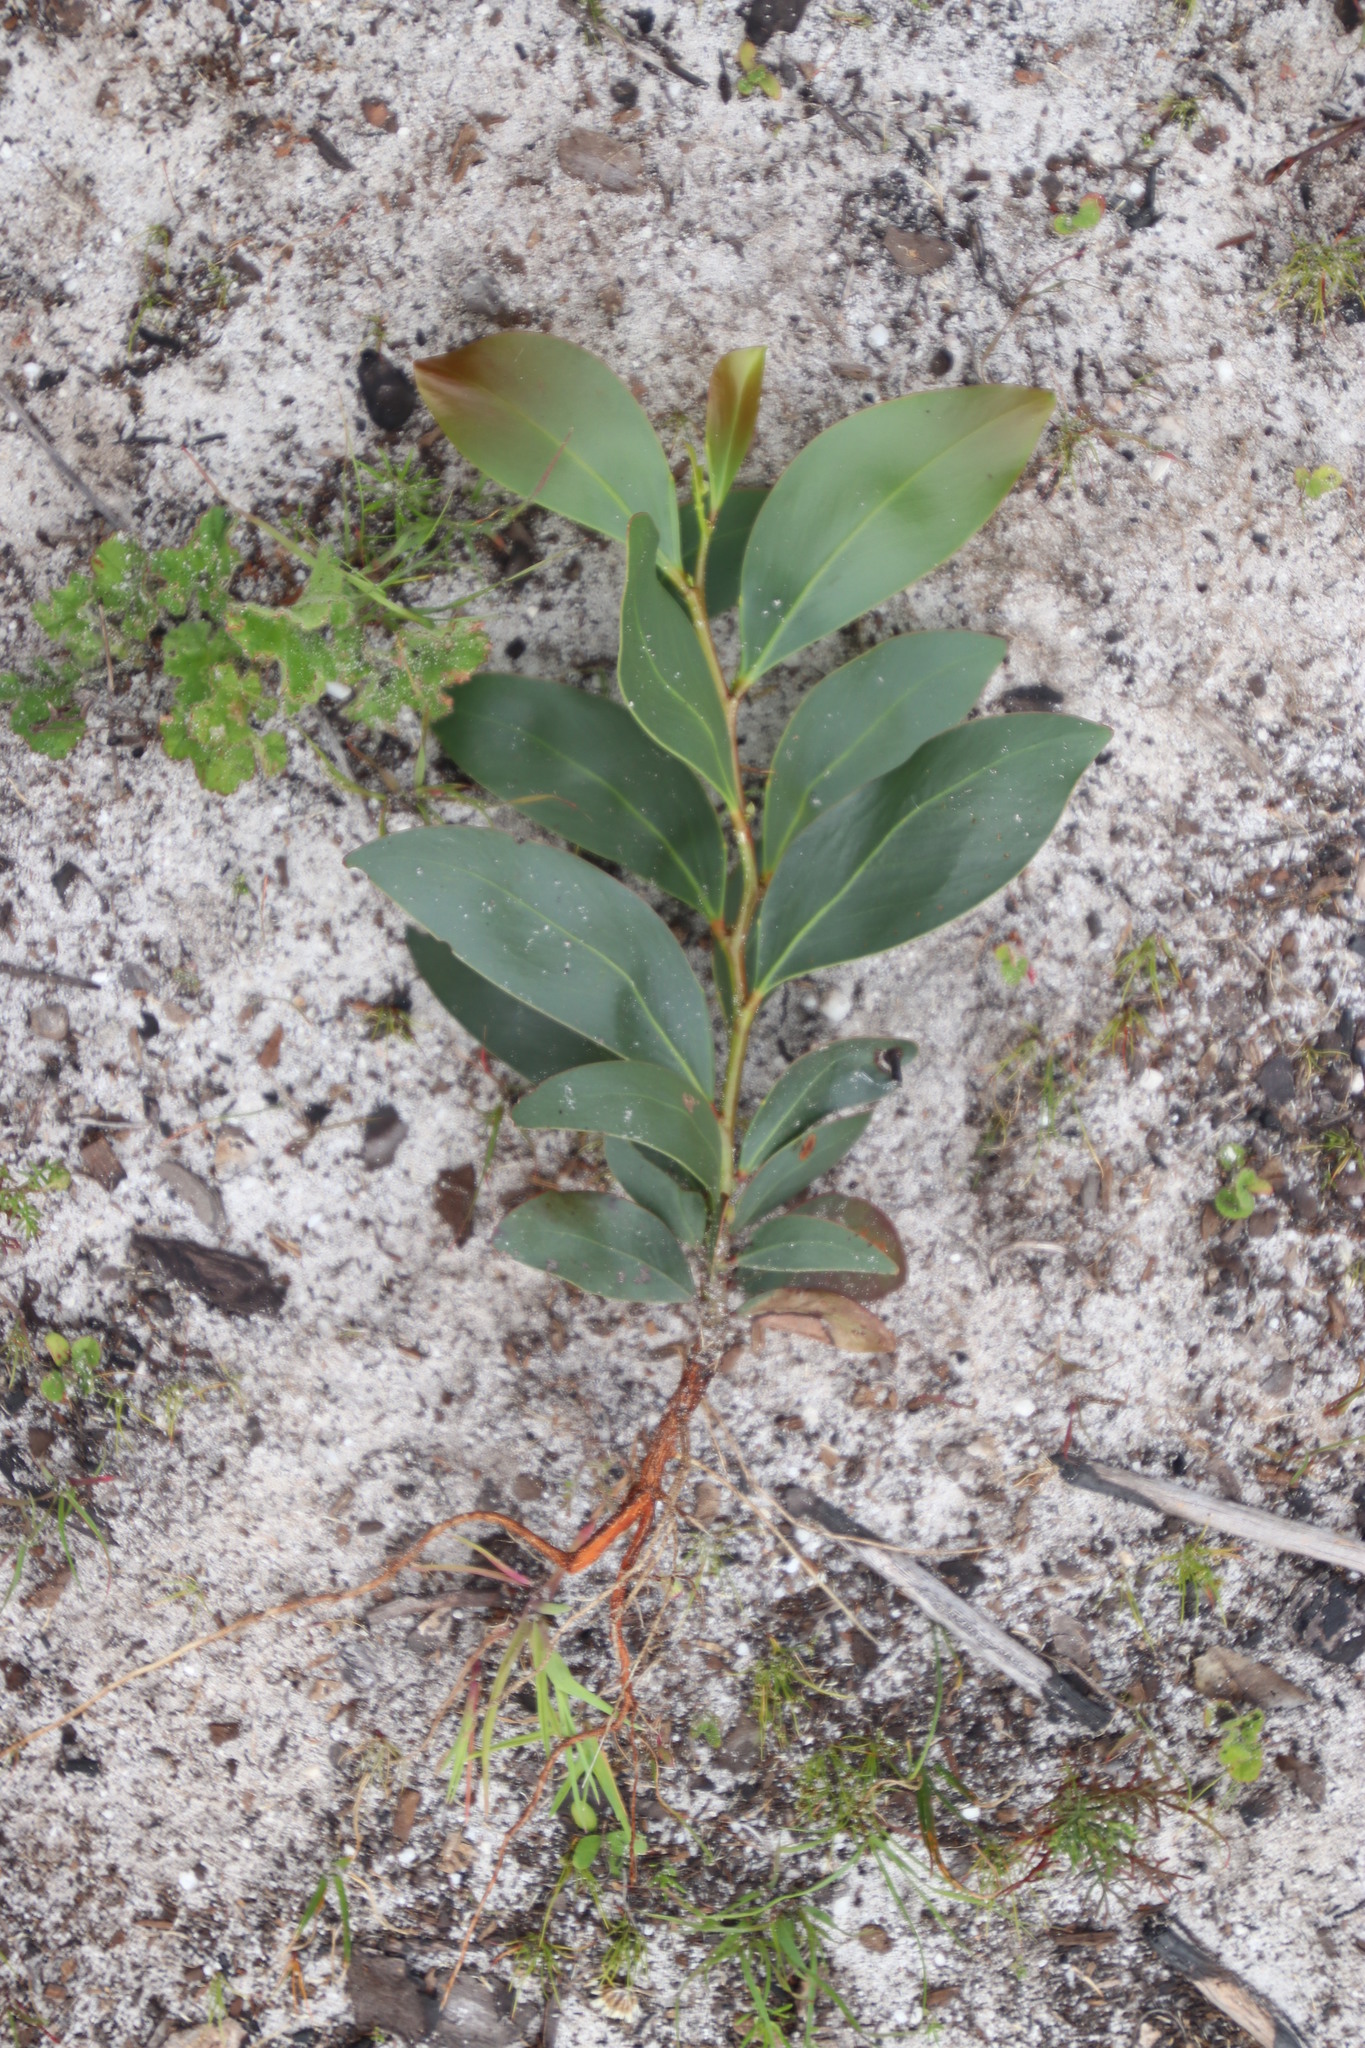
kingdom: Plantae
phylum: Tracheophyta
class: Magnoliopsida
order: Fabales
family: Fabaceae
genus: Acacia
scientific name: Acacia pycnantha
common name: Golden wattle
